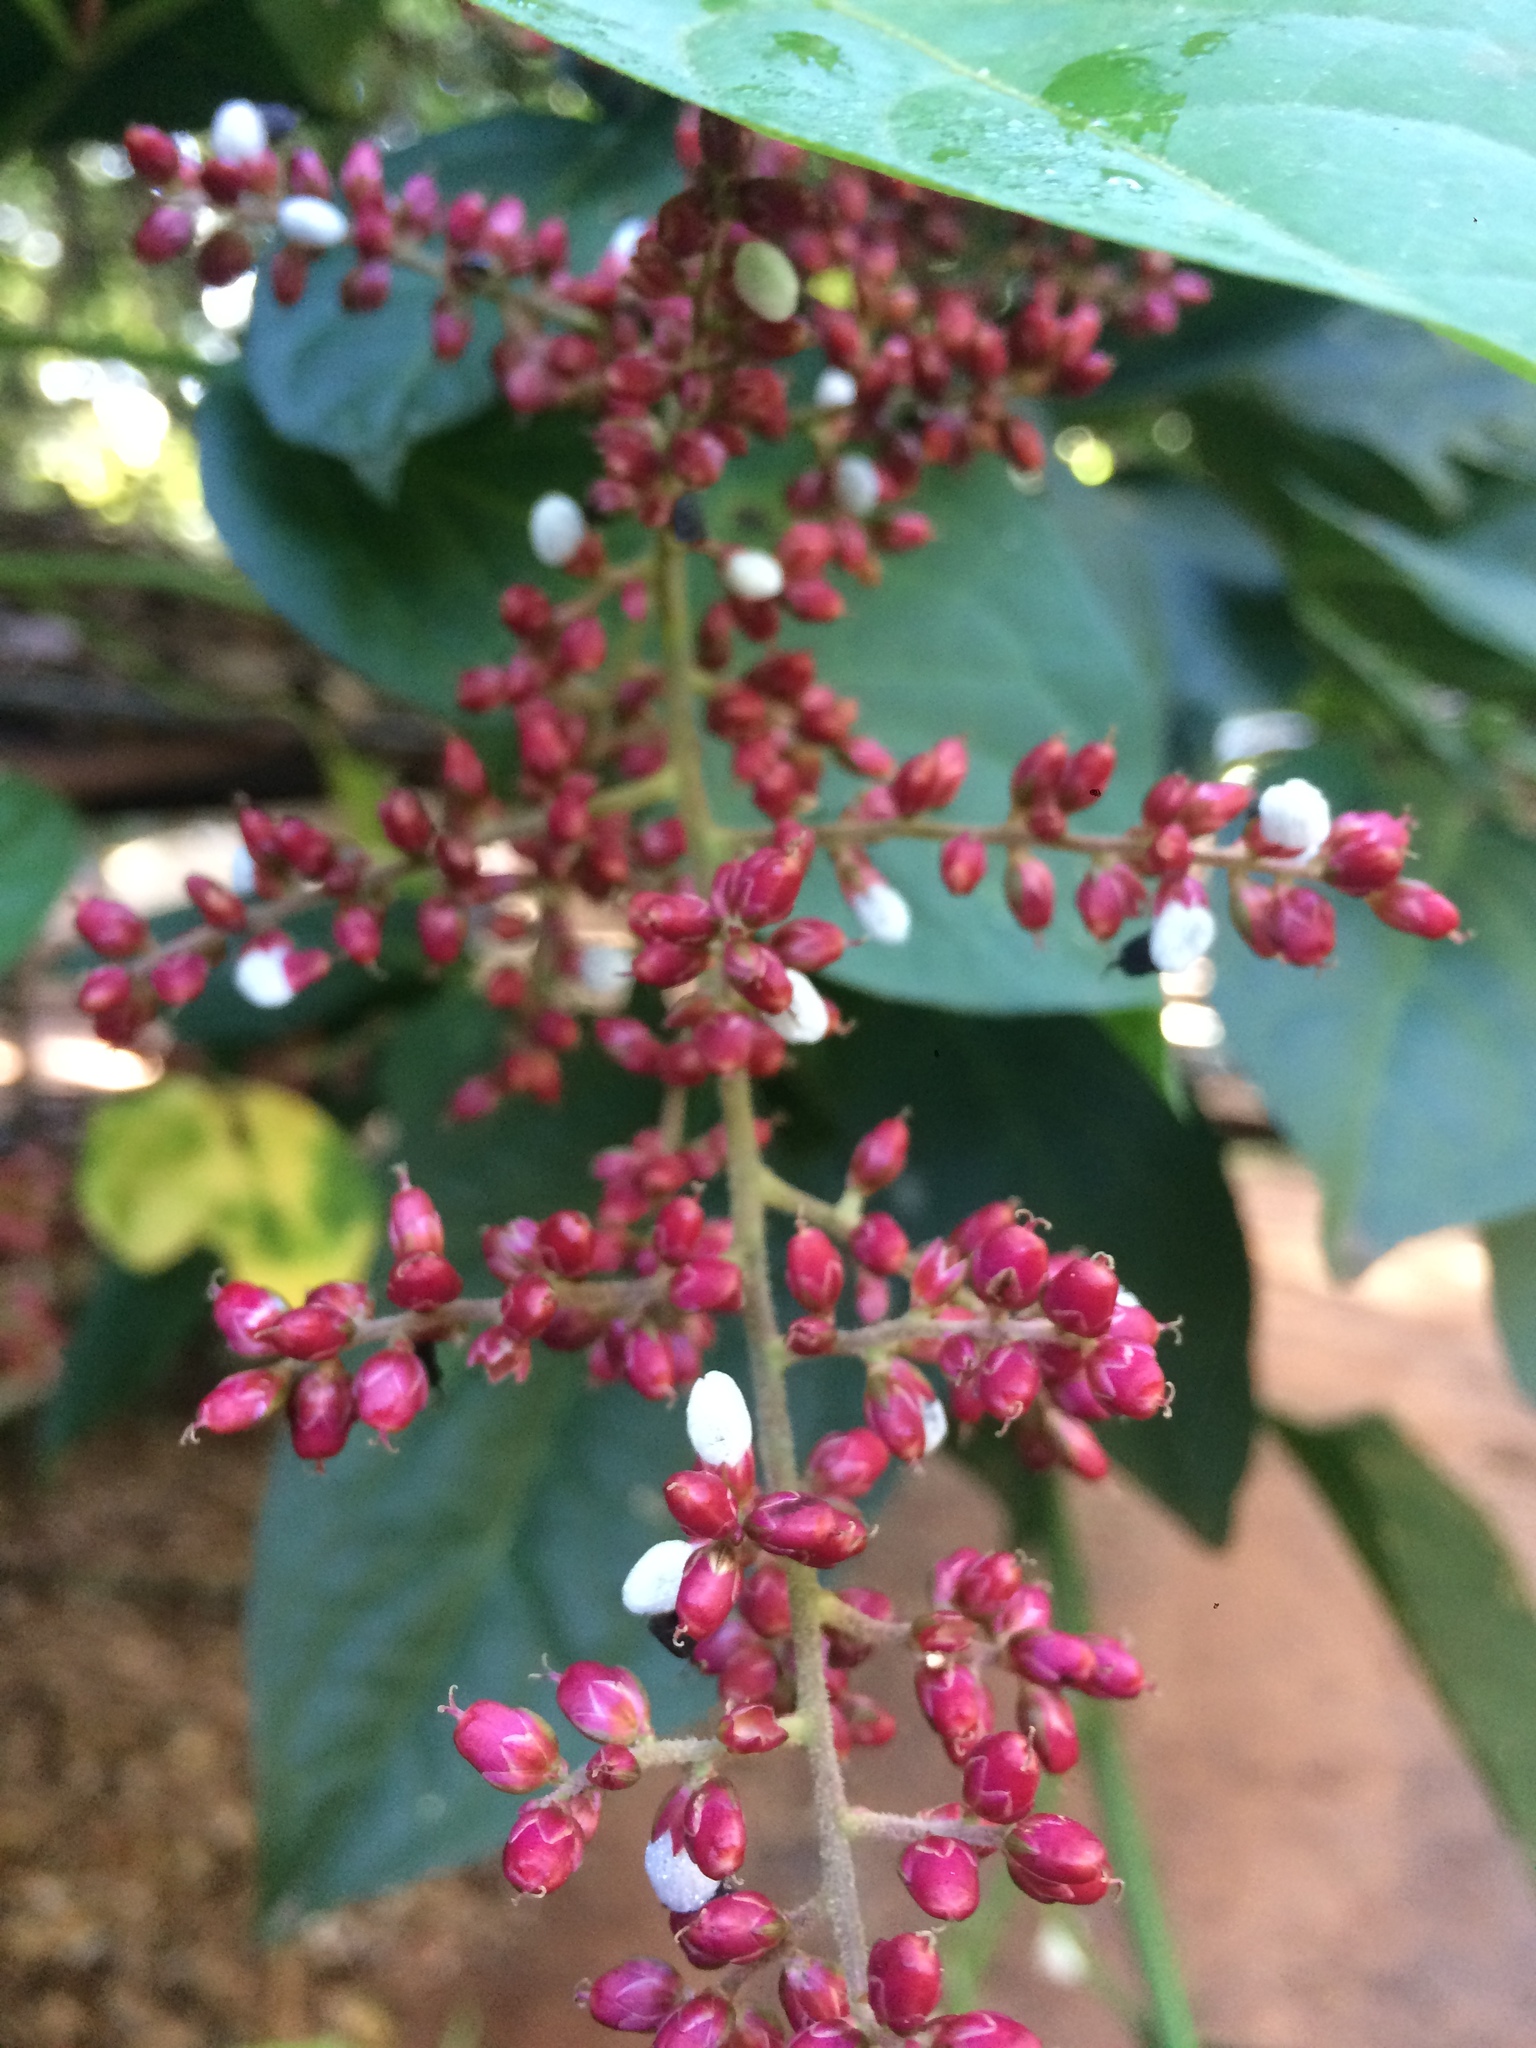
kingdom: Plantae
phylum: Tracheophyta
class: Magnoliopsida
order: Caryophyllales
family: Amaranthaceae
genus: Chamissoa
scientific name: Chamissoa altissima
